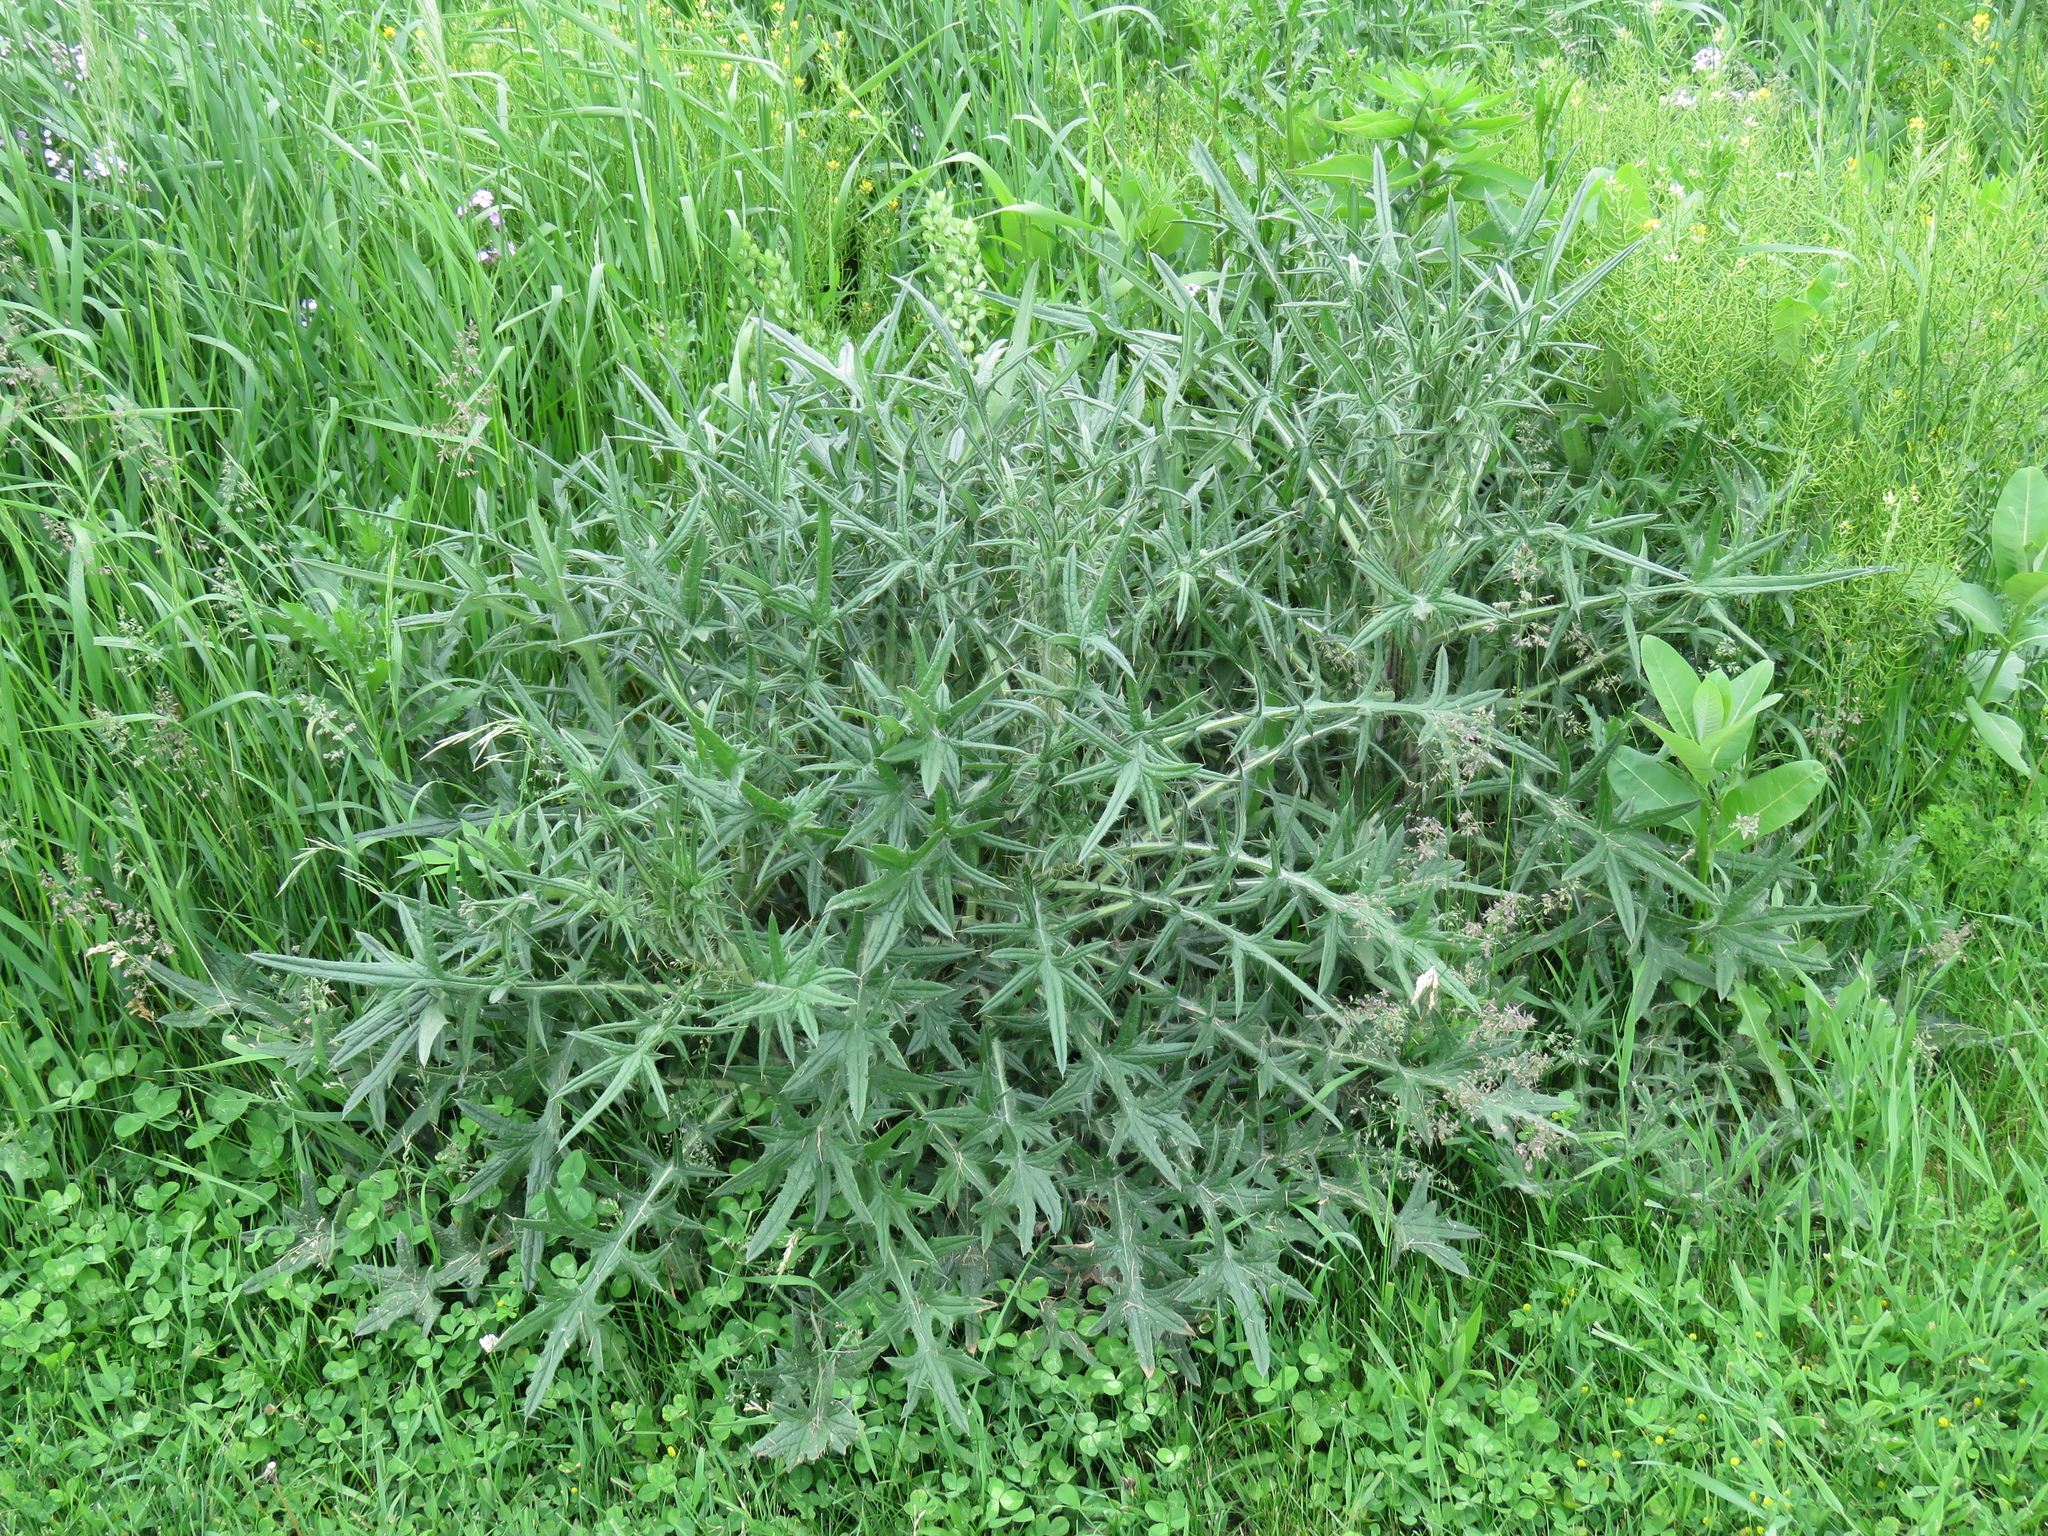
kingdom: Plantae
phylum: Tracheophyta
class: Magnoliopsida
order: Asterales
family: Asteraceae
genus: Cirsium
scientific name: Cirsium vulgare
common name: Bull thistle
